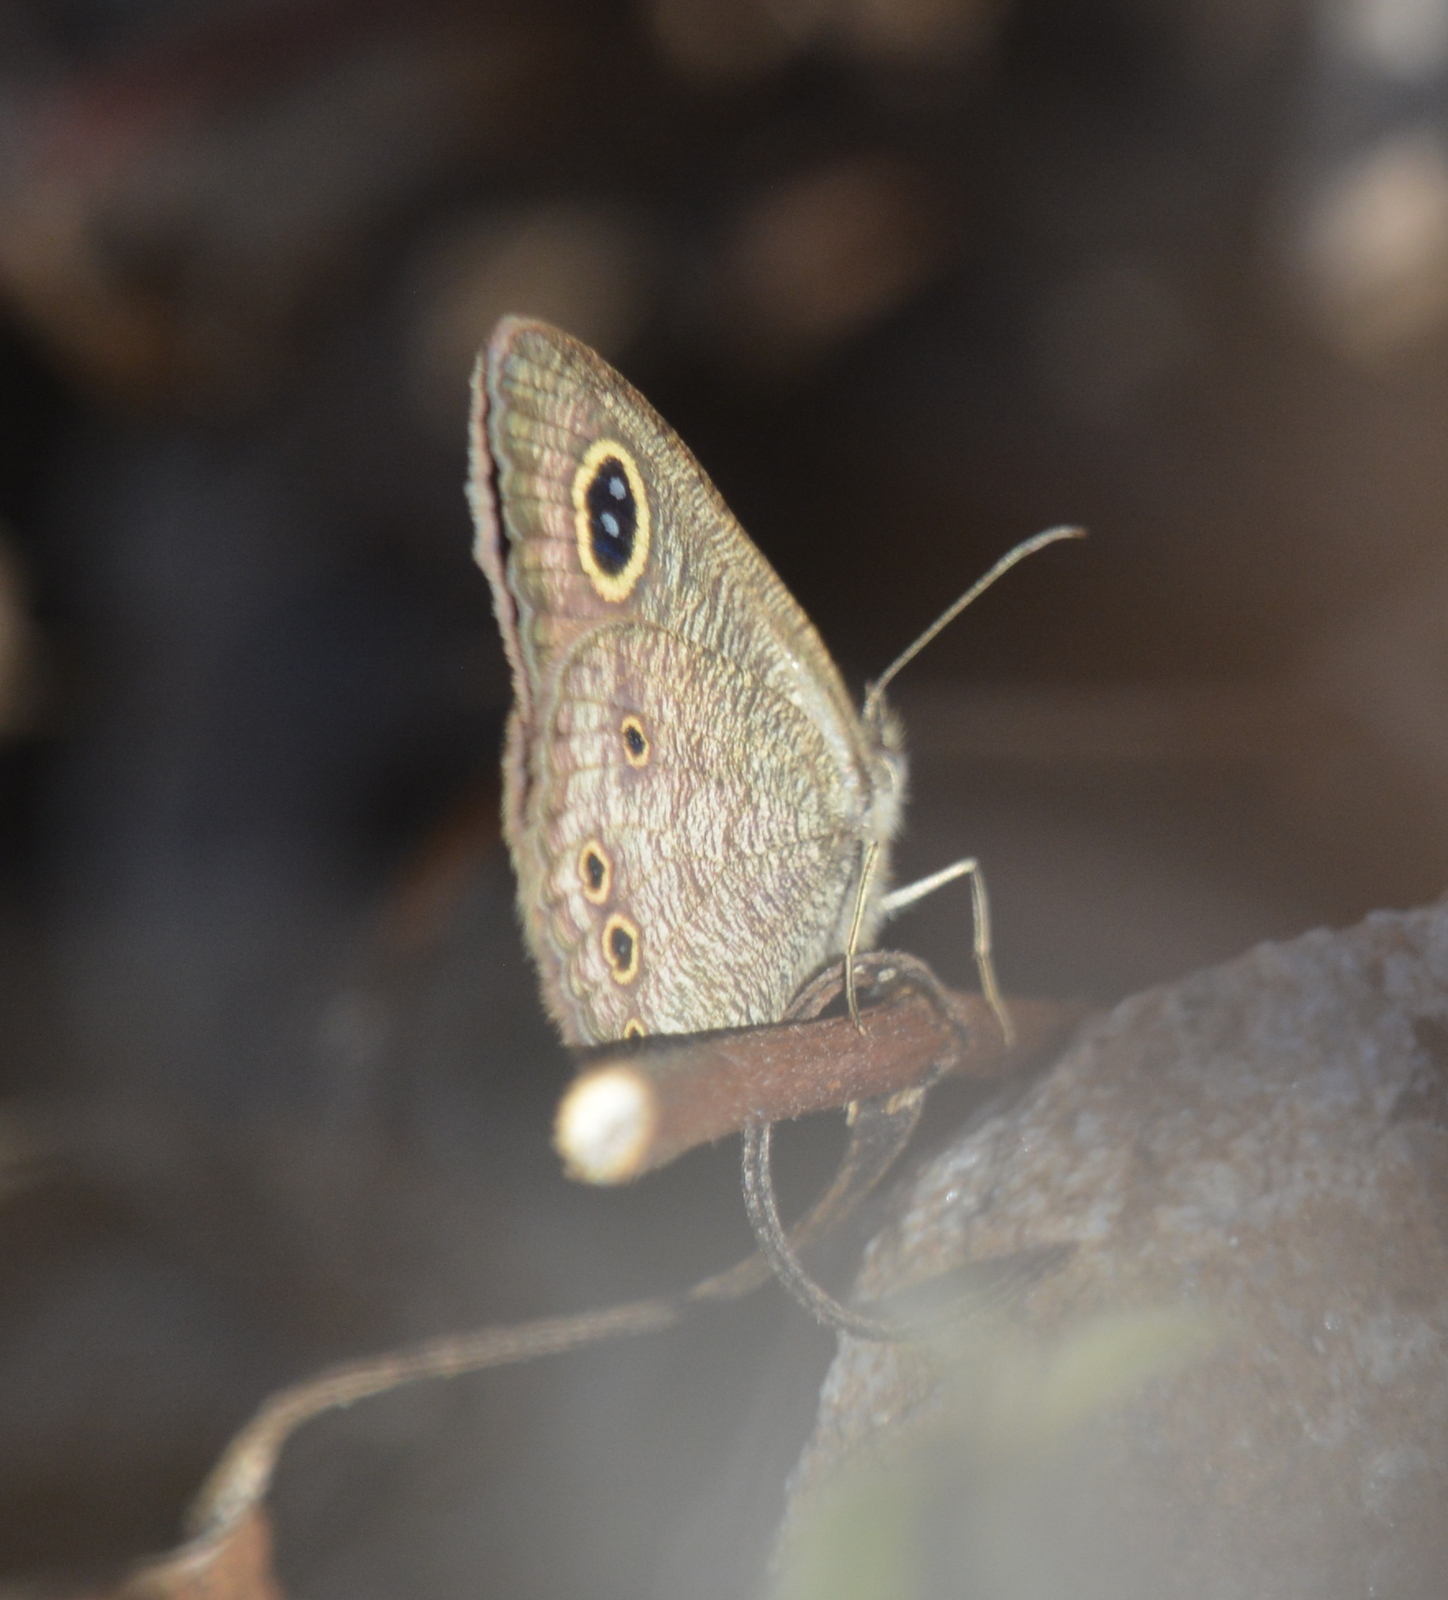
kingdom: Animalia
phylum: Arthropoda
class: Insecta
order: Lepidoptera
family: Nymphalidae
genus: Ypthima
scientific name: Ypthima baldus
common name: Common five-ring
